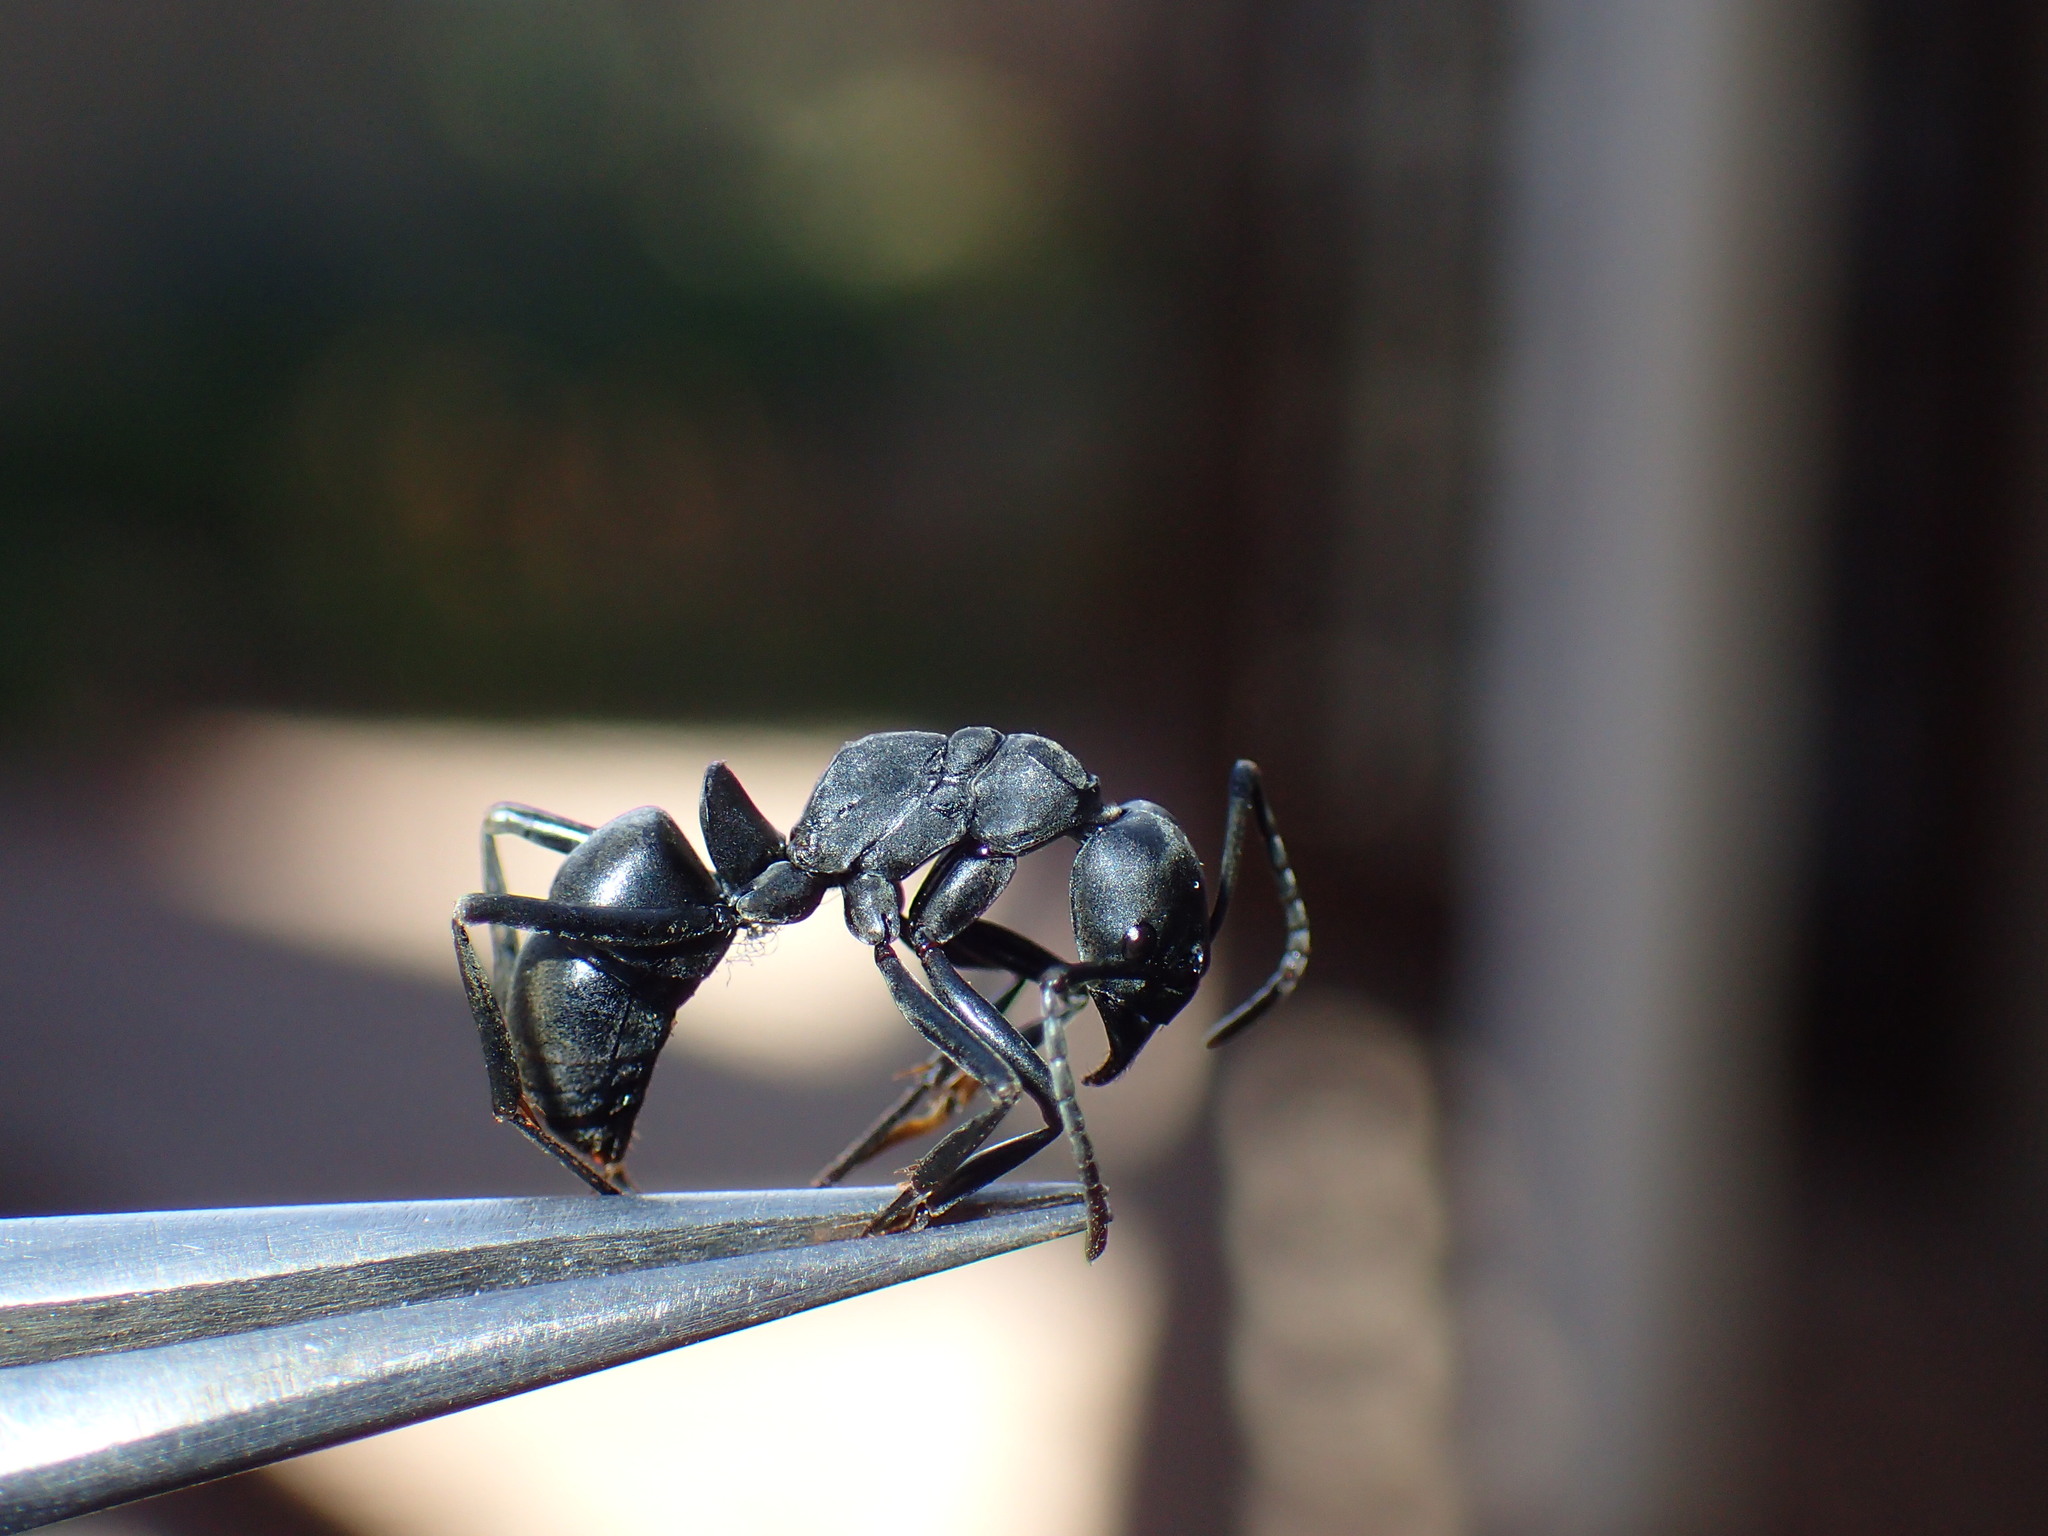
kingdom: Animalia
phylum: Arthropoda
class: Insecta
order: Hymenoptera
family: Formicidae
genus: Hagensia
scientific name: Hagensia
